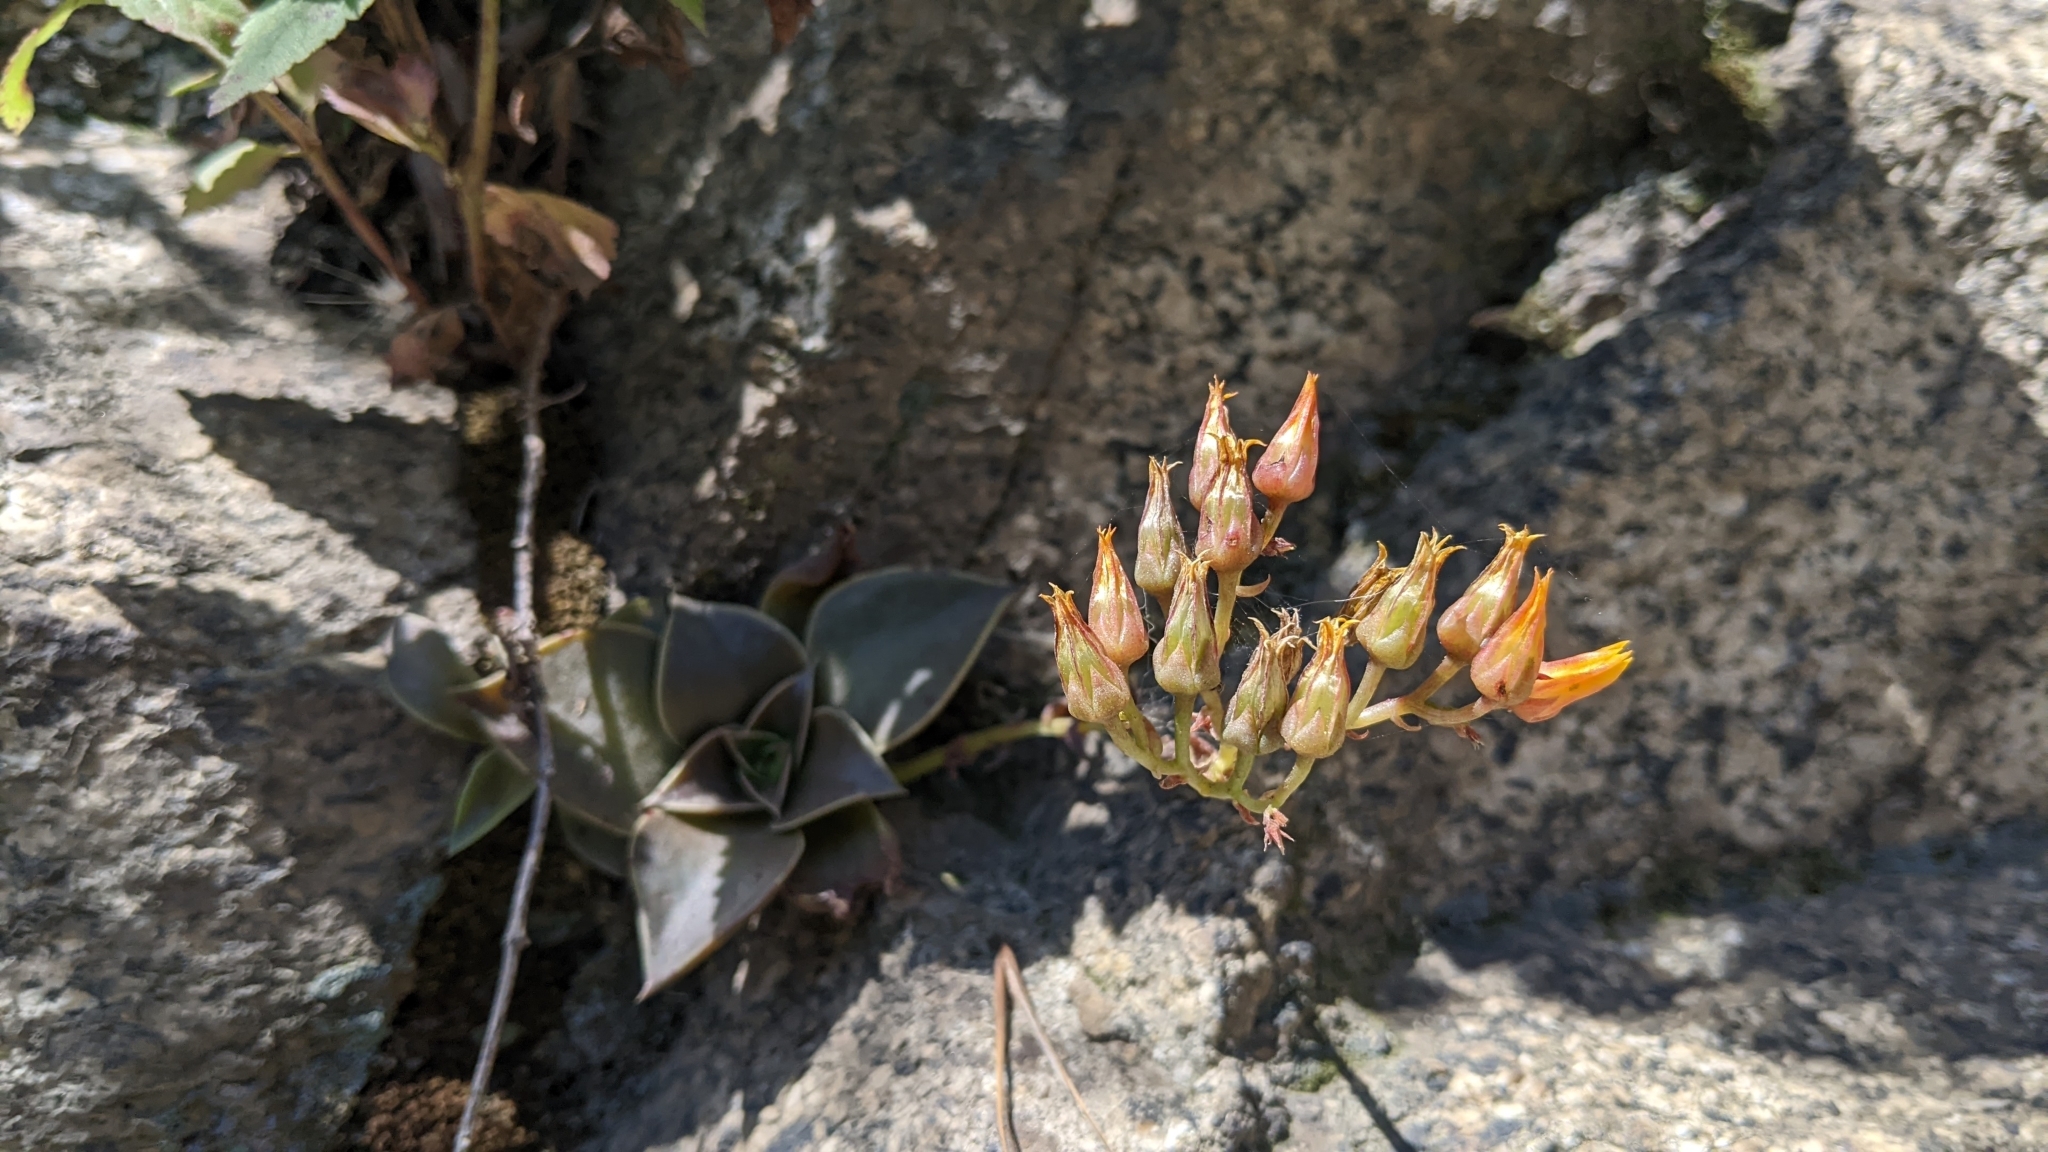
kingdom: Plantae
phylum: Tracheophyta
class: Magnoliopsida
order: Saxifragales
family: Crassulaceae
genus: Dudleya
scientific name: Dudleya cymosa
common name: Canyon dudleya
